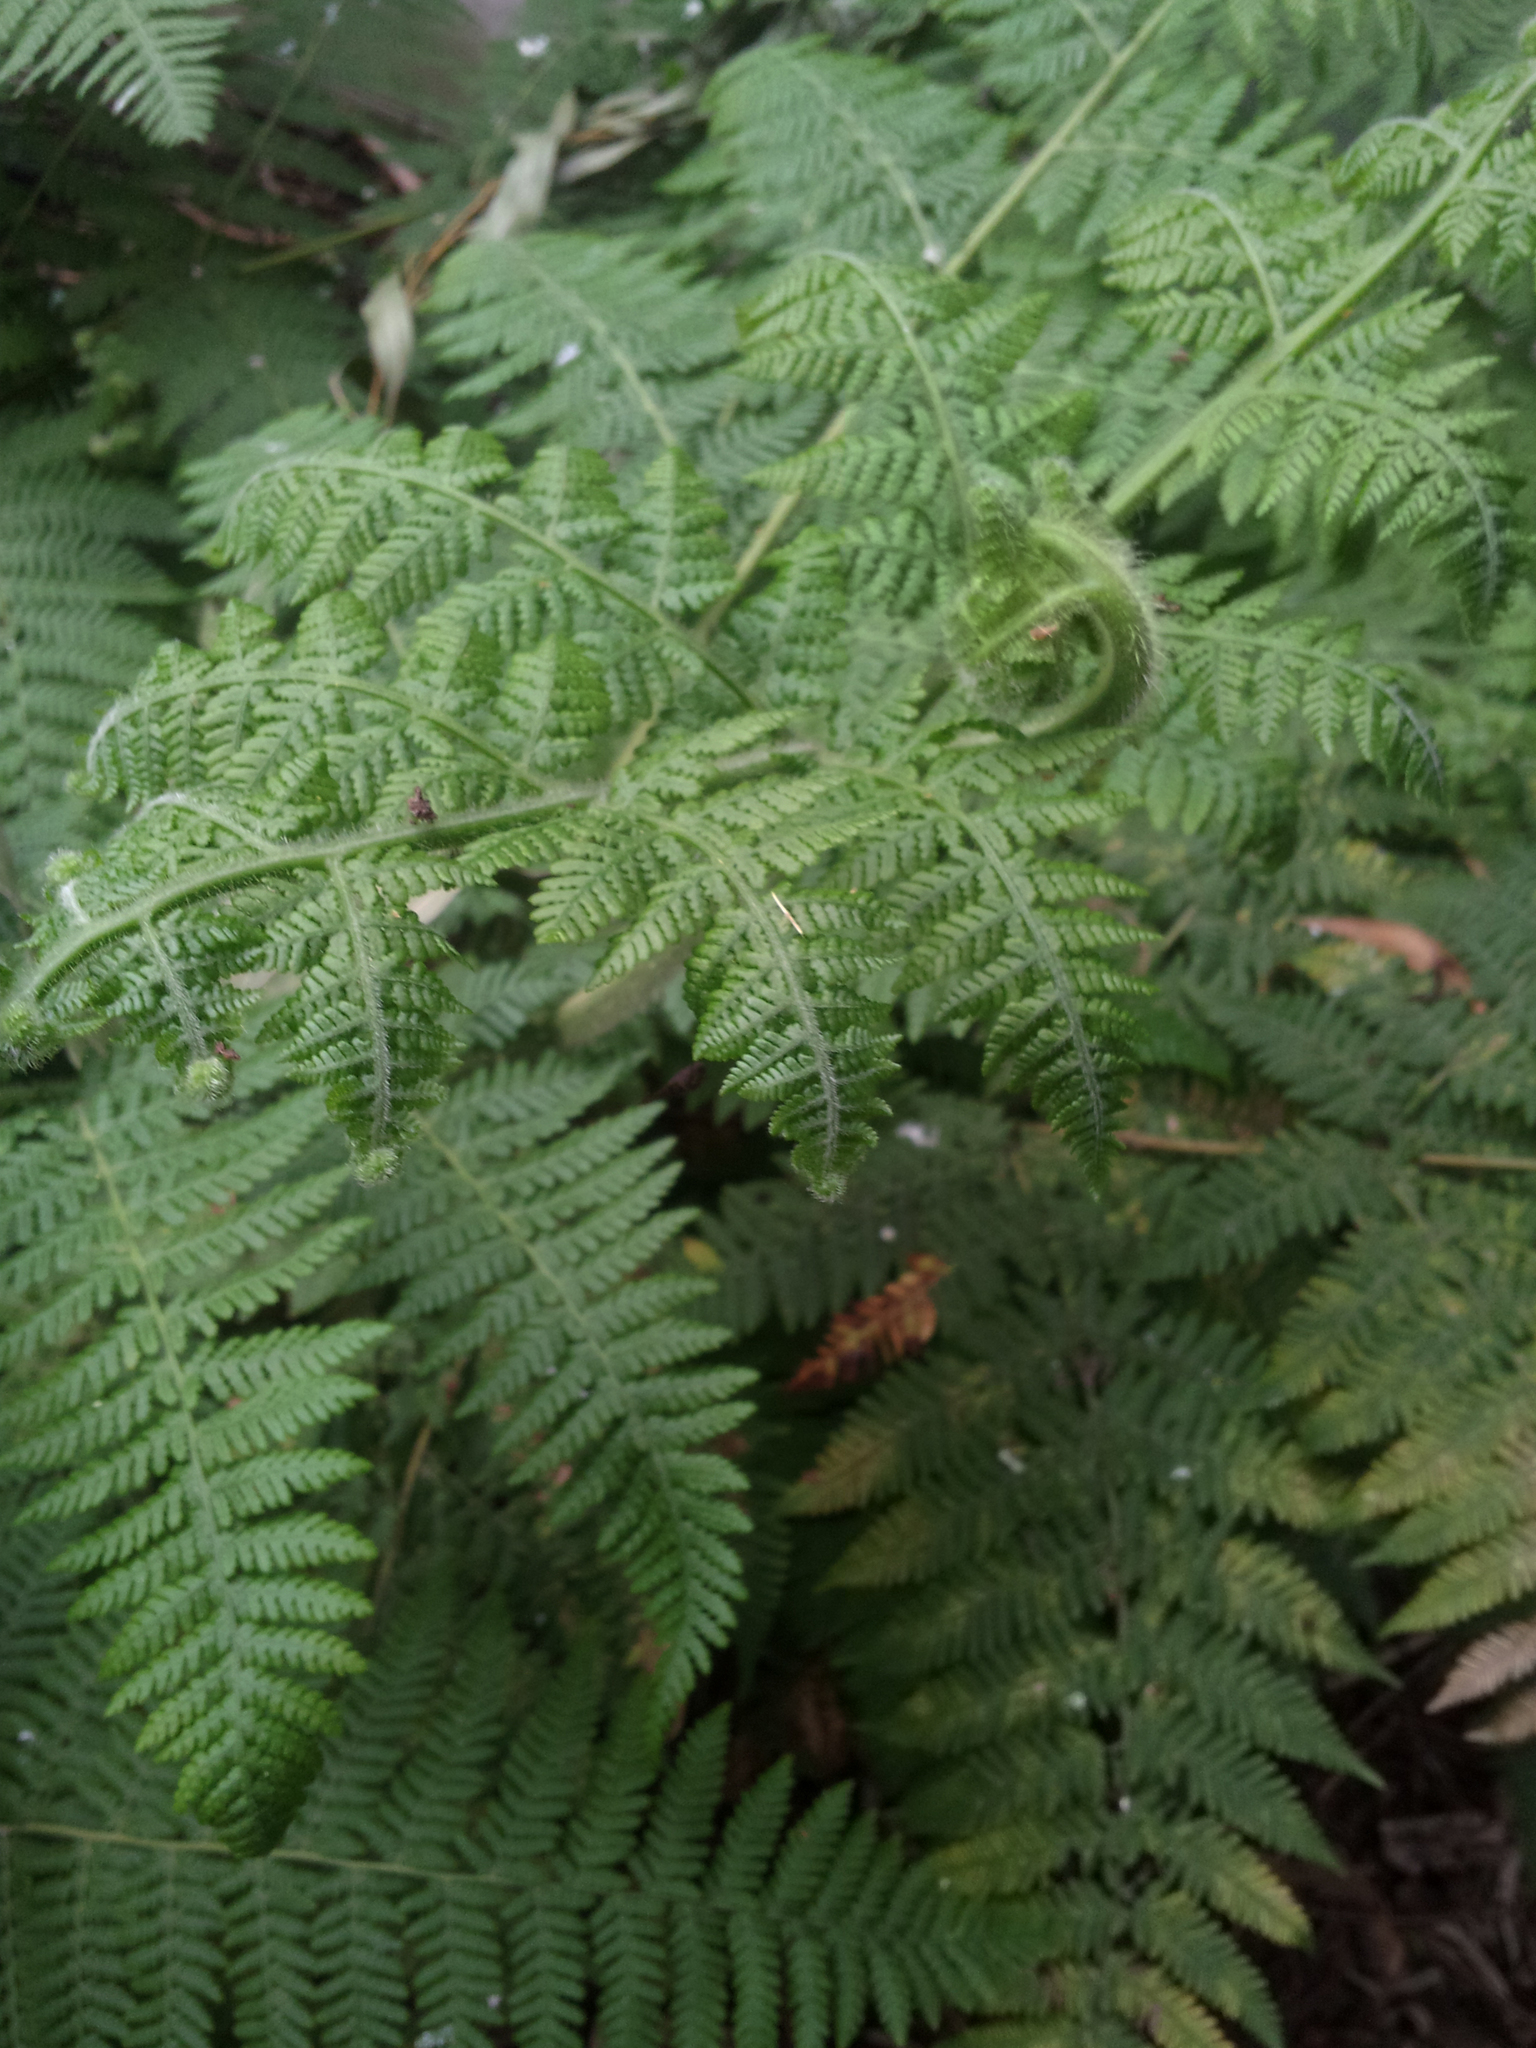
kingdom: Plantae
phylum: Tracheophyta
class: Polypodiopsida
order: Polypodiales
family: Dennstaedtiaceae
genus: Hypolepis
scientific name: Hypolepis resistens
